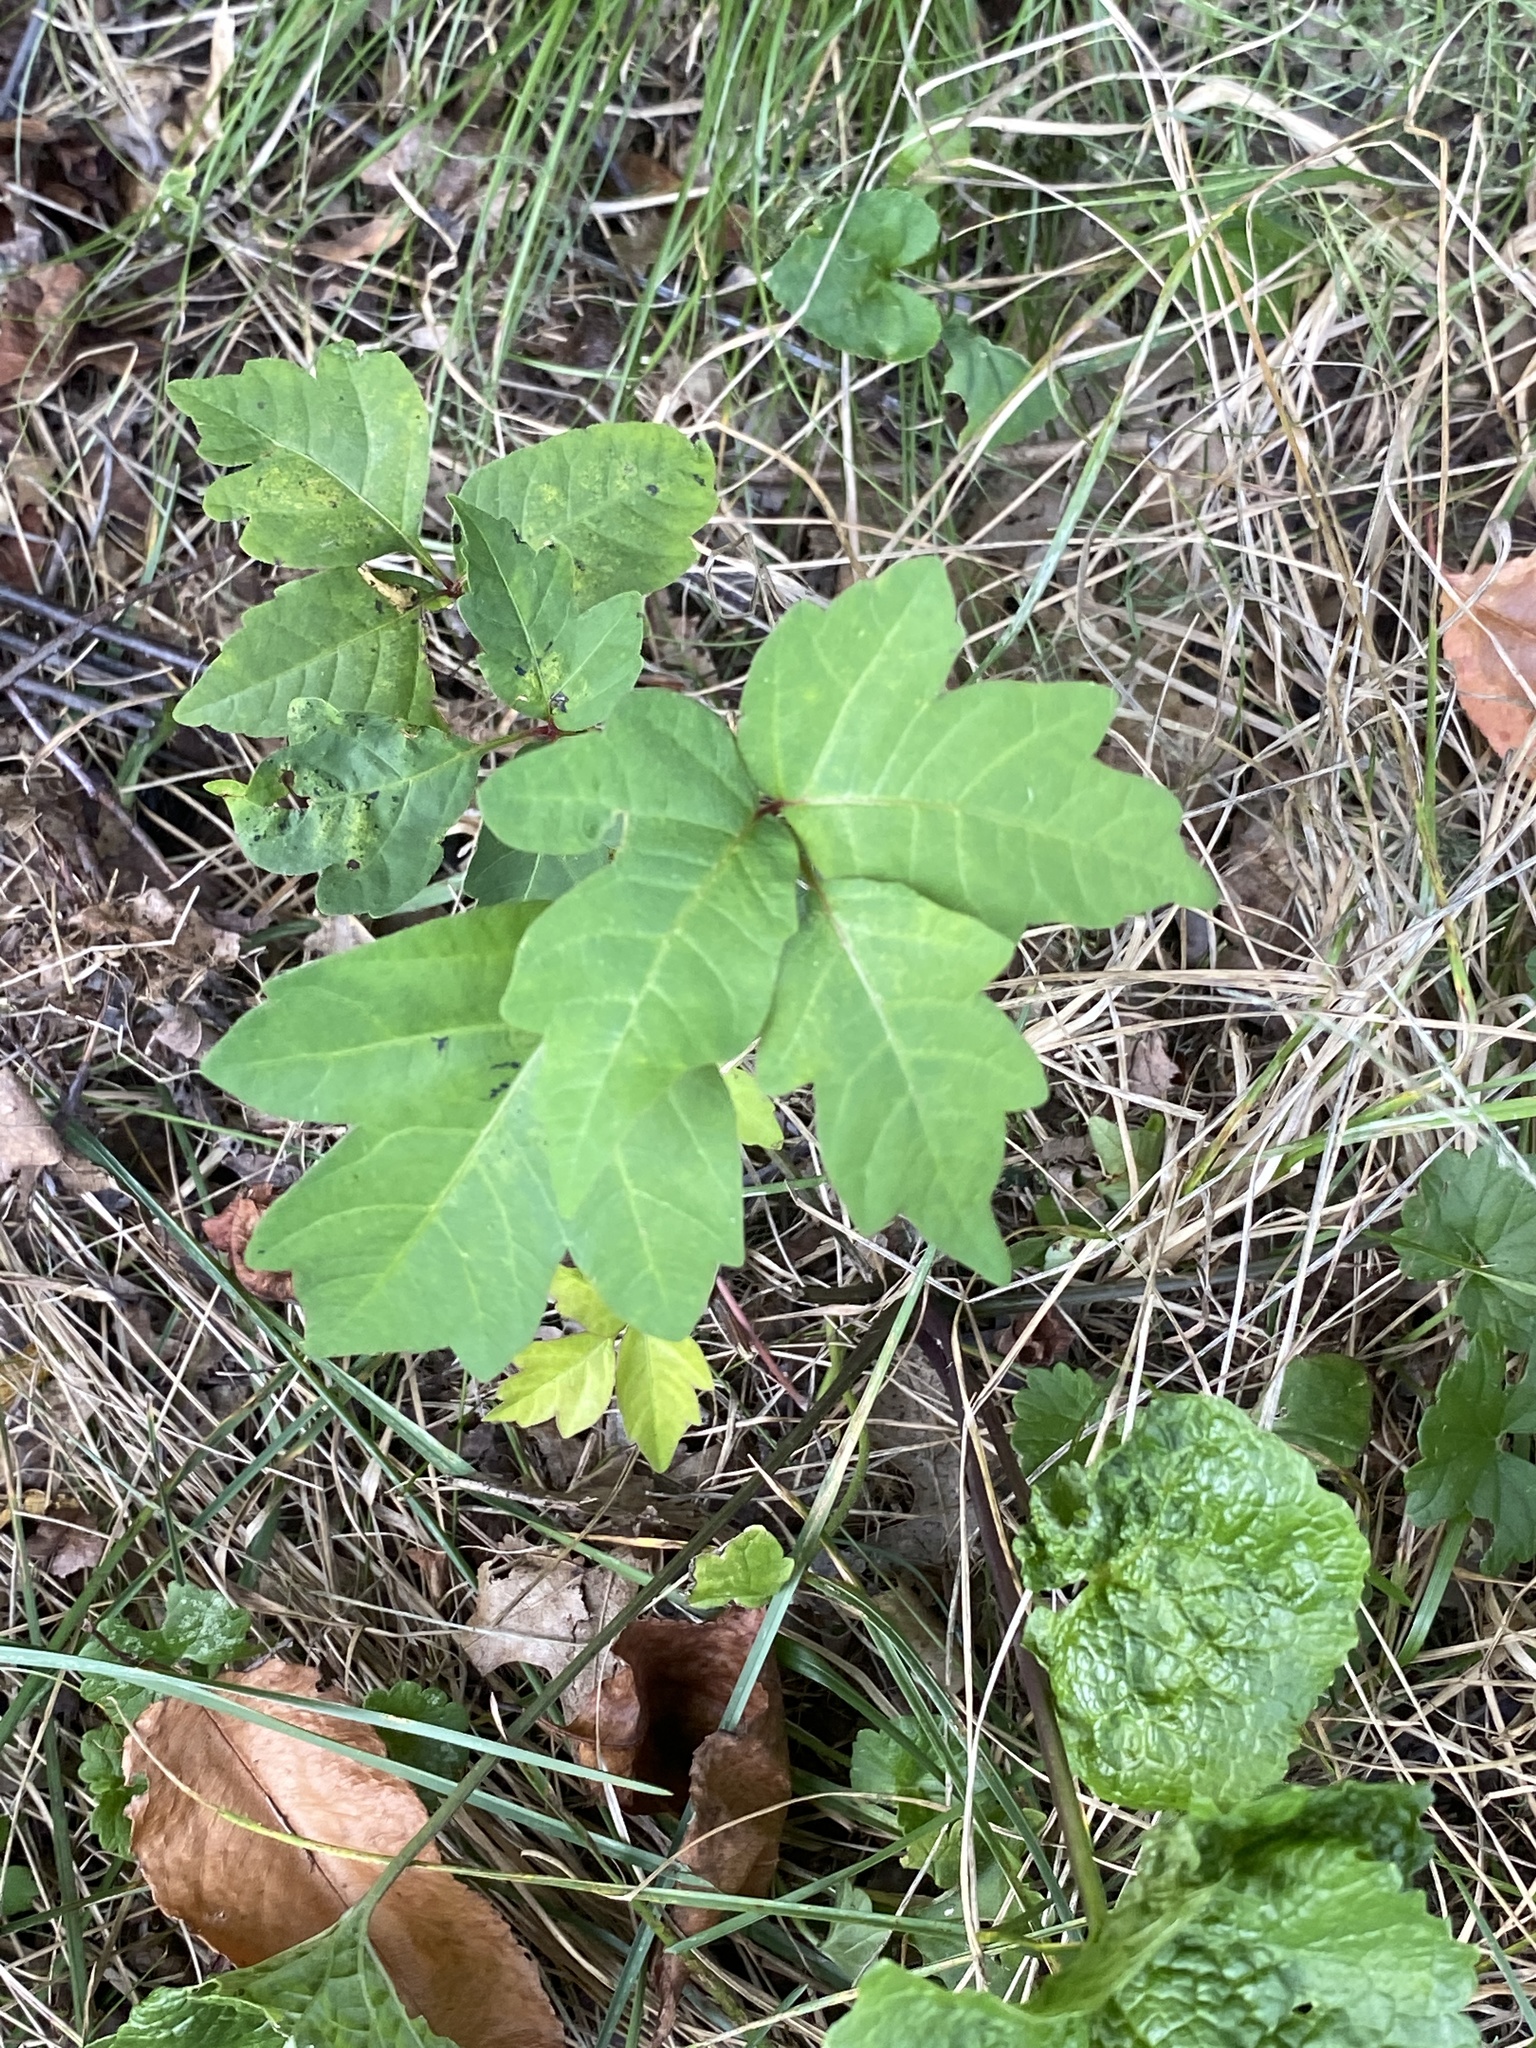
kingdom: Plantae
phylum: Tracheophyta
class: Magnoliopsida
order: Sapindales
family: Anacardiaceae
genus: Toxicodendron
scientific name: Toxicodendron radicans
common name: Poison ivy
